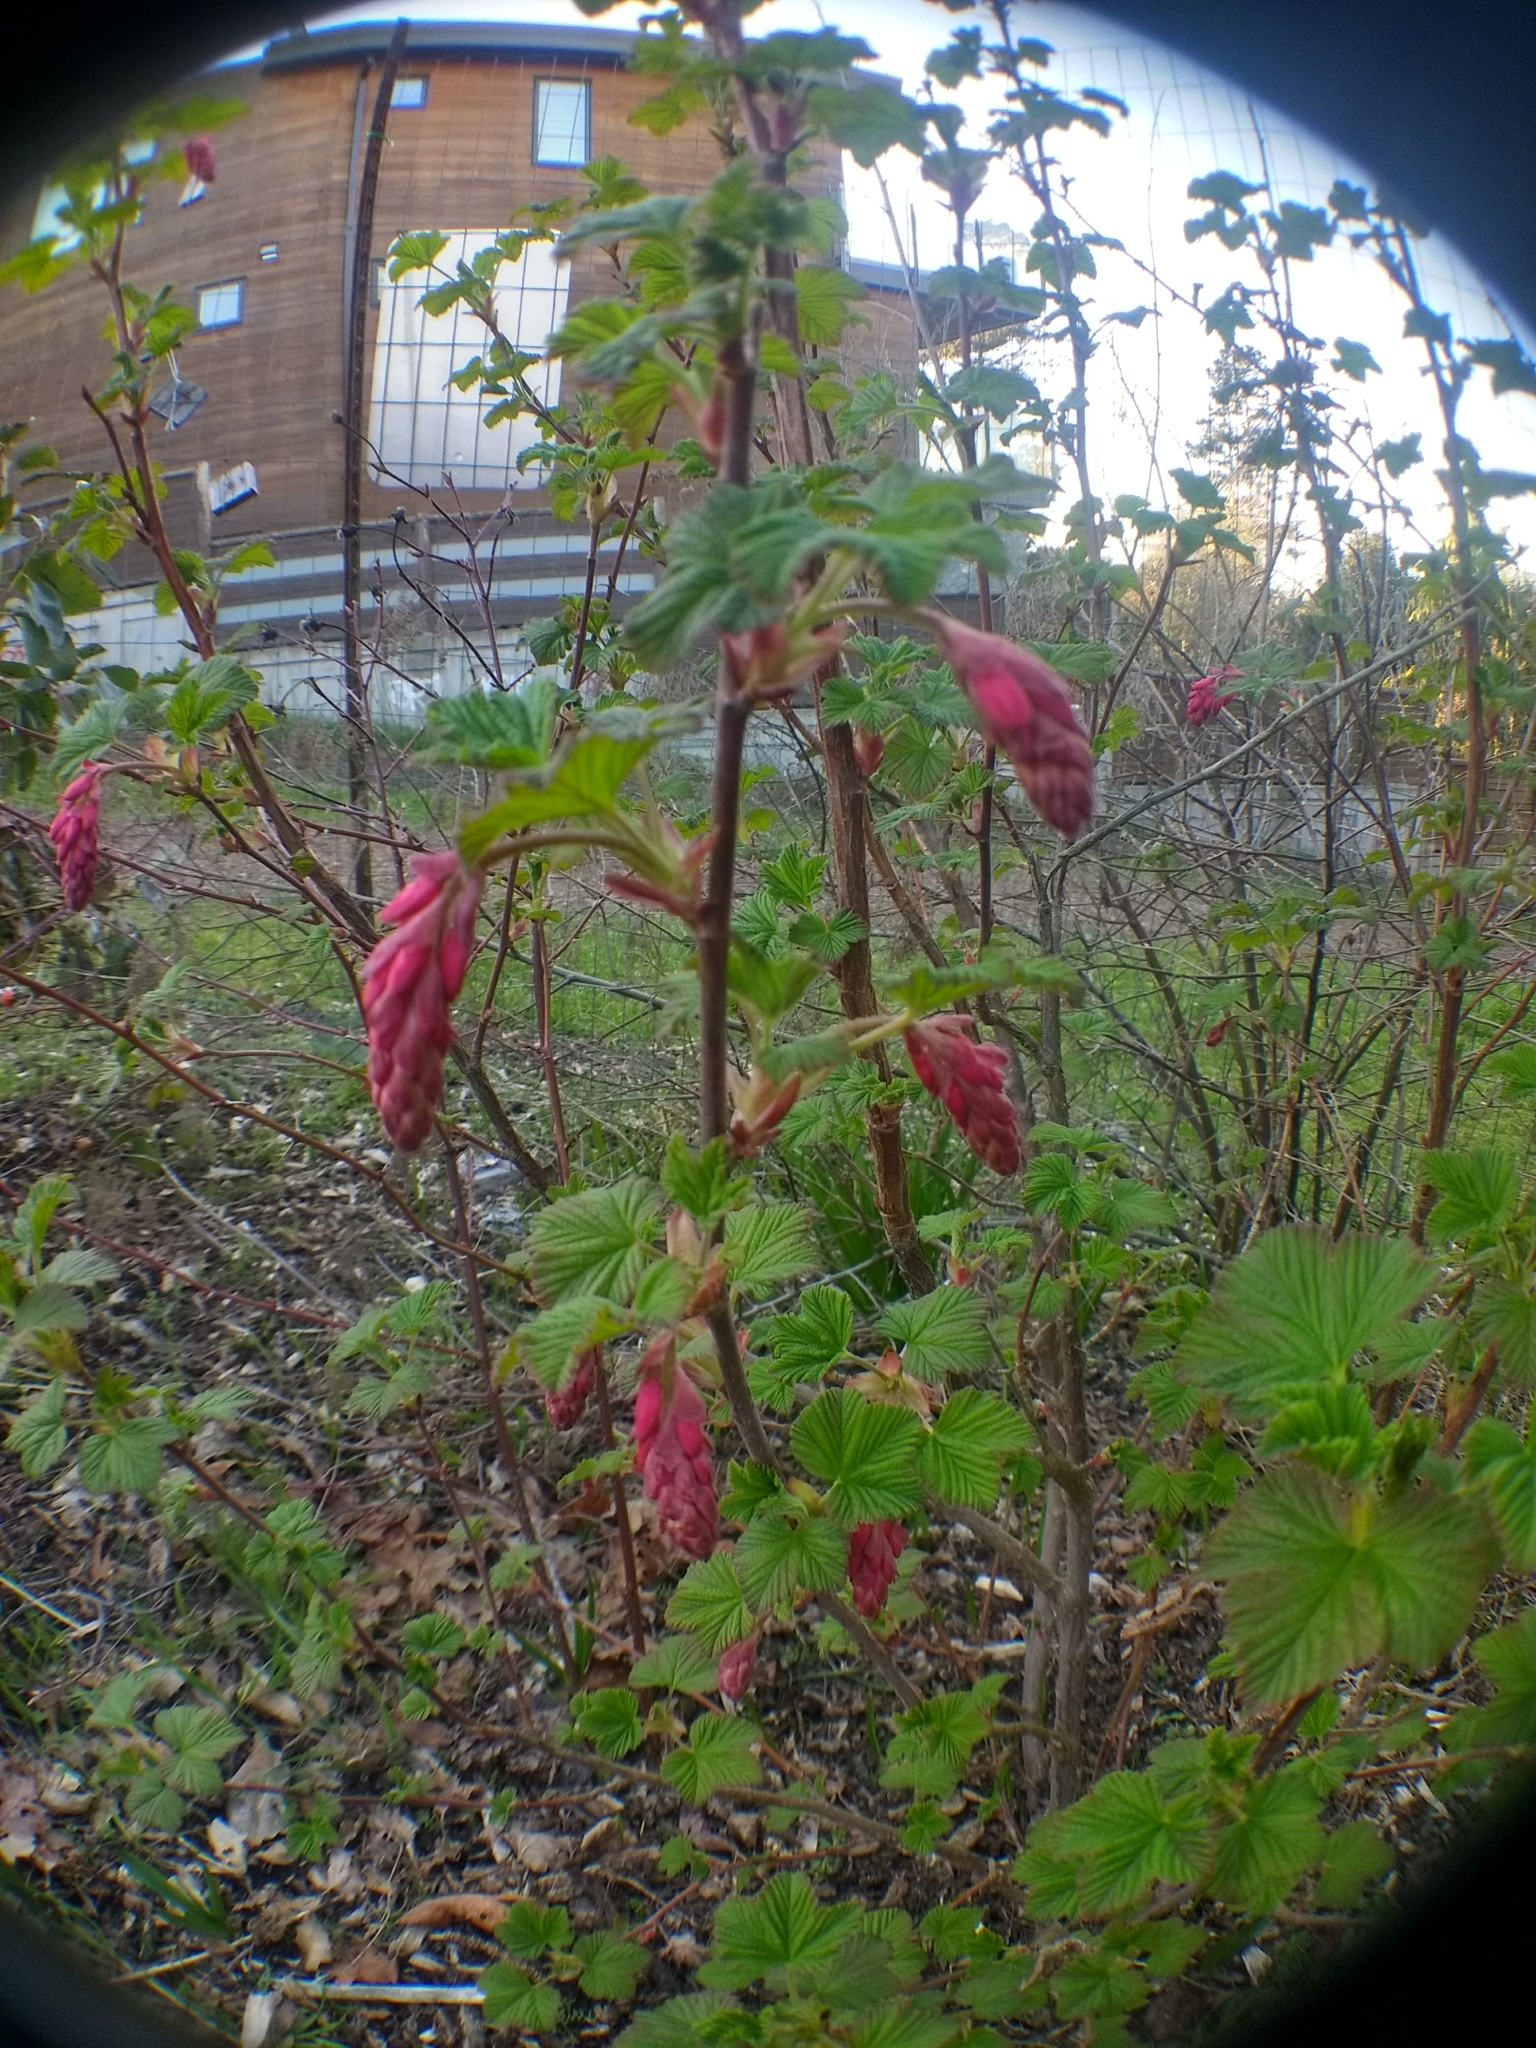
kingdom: Plantae
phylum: Tracheophyta
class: Magnoliopsida
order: Saxifragales
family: Grossulariaceae
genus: Ribes
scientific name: Ribes sanguineum
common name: Flowering currant
